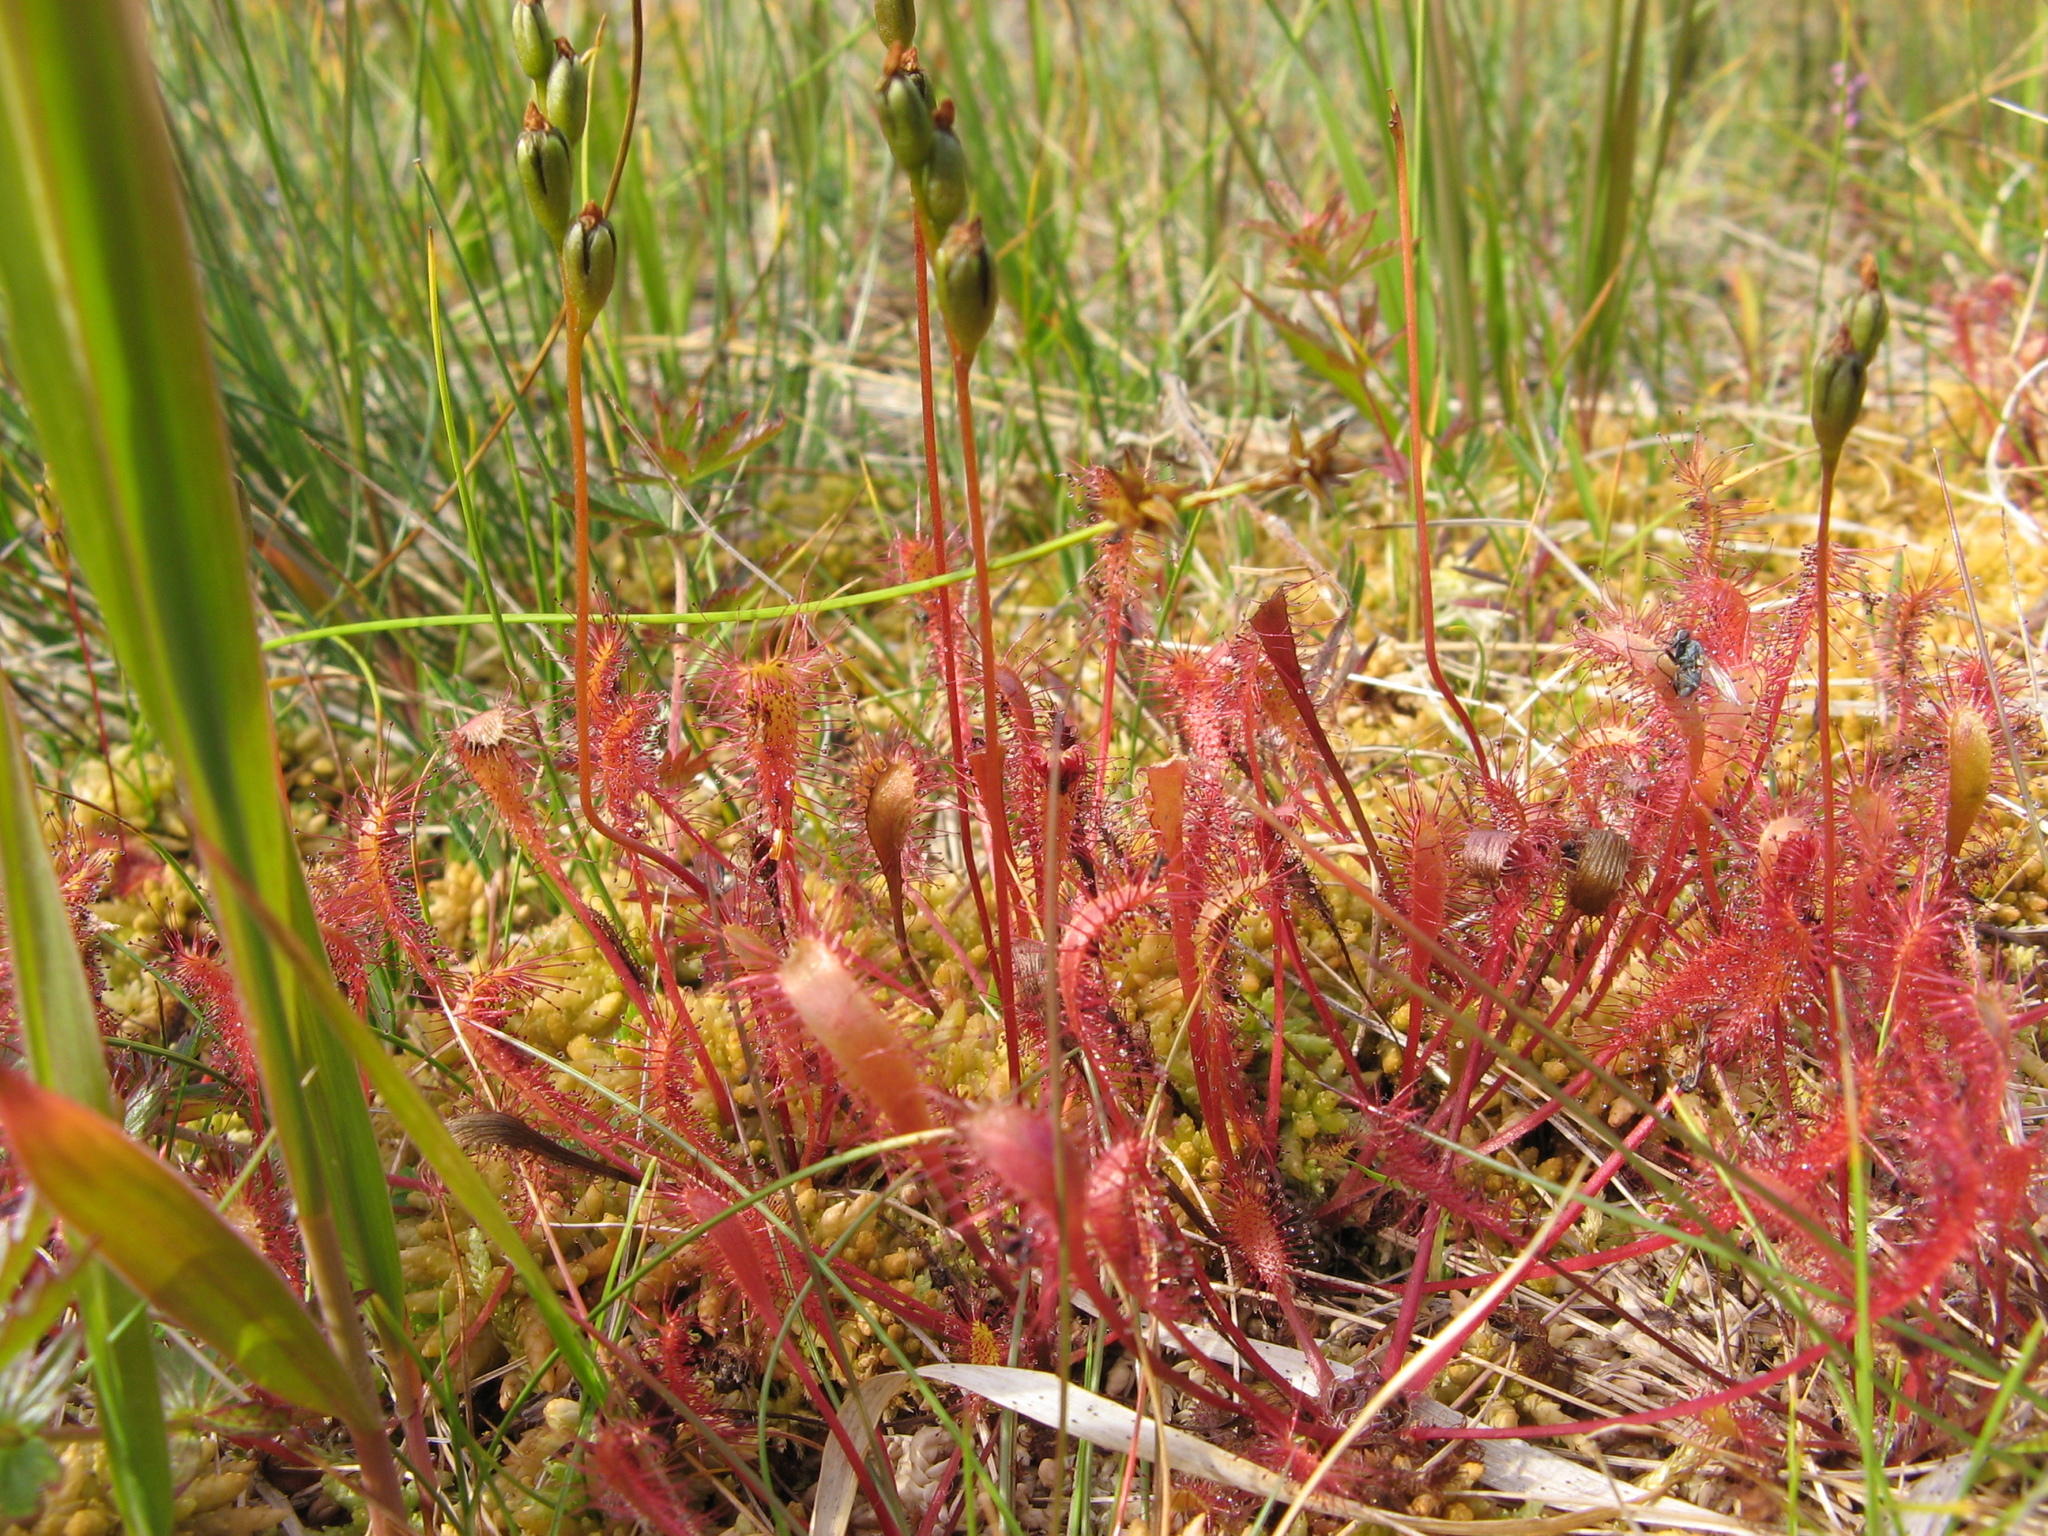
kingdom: Plantae
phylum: Tracheophyta
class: Magnoliopsida
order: Caryophyllales
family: Droseraceae
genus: Drosera
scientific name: Drosera anglica
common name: Great sundew
